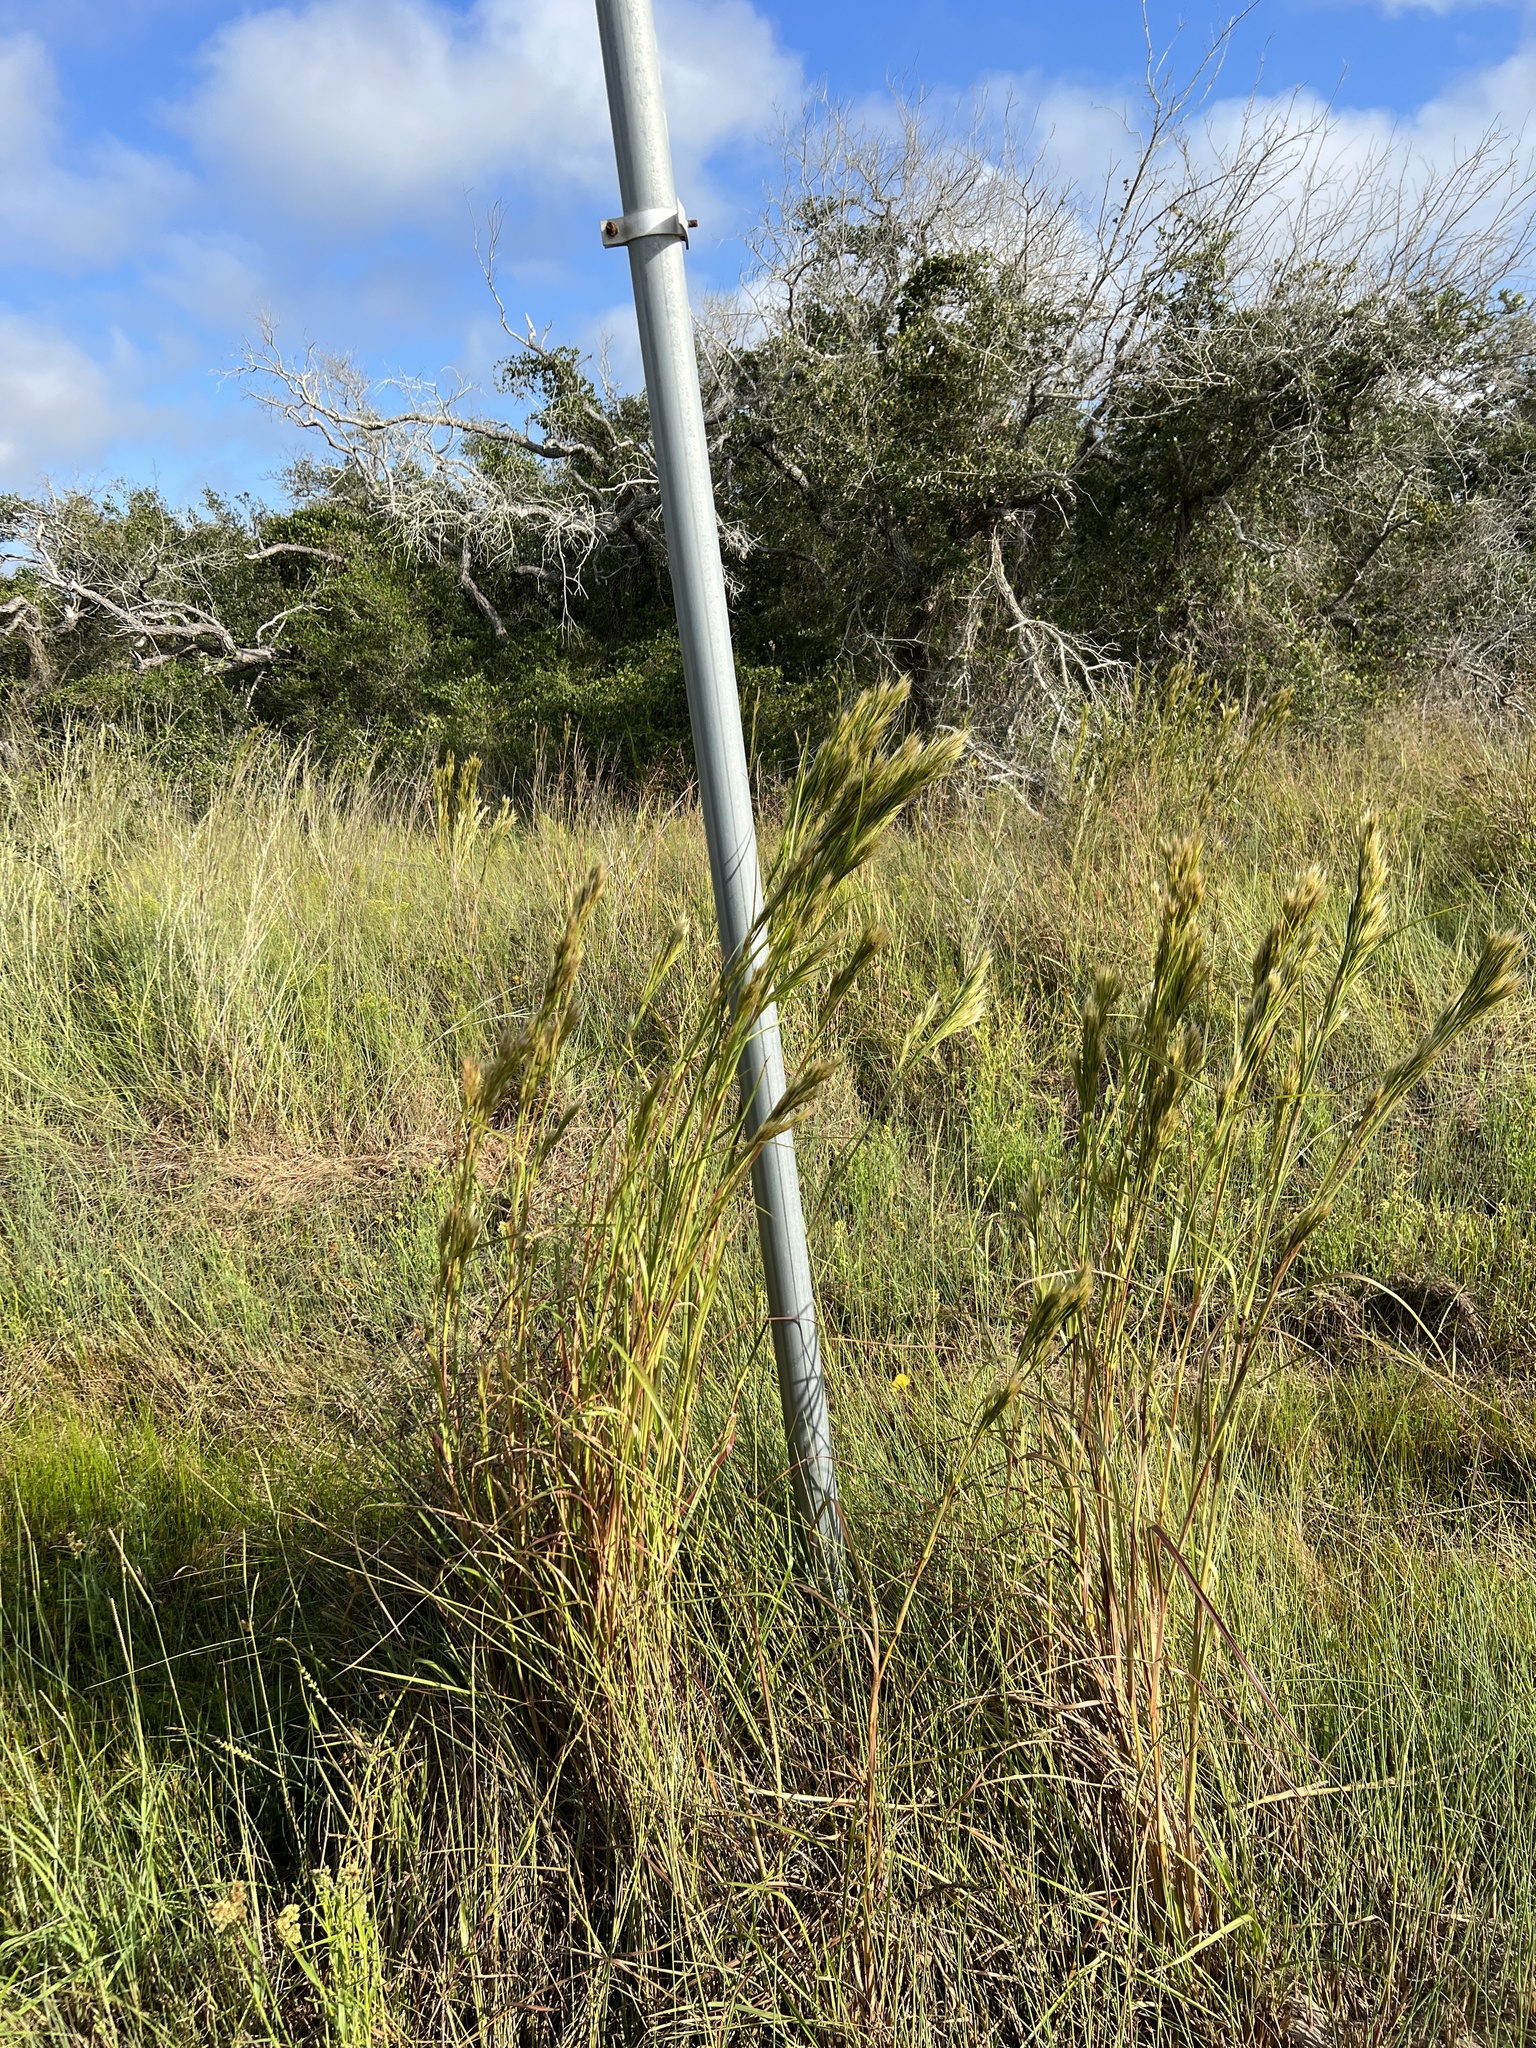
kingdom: Plantae
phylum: Tracheophyta
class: Liliopsida
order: Poales
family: Poaceae
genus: Andropogon
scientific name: Andropogon tenuispatheus
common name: Bushy bluestem
